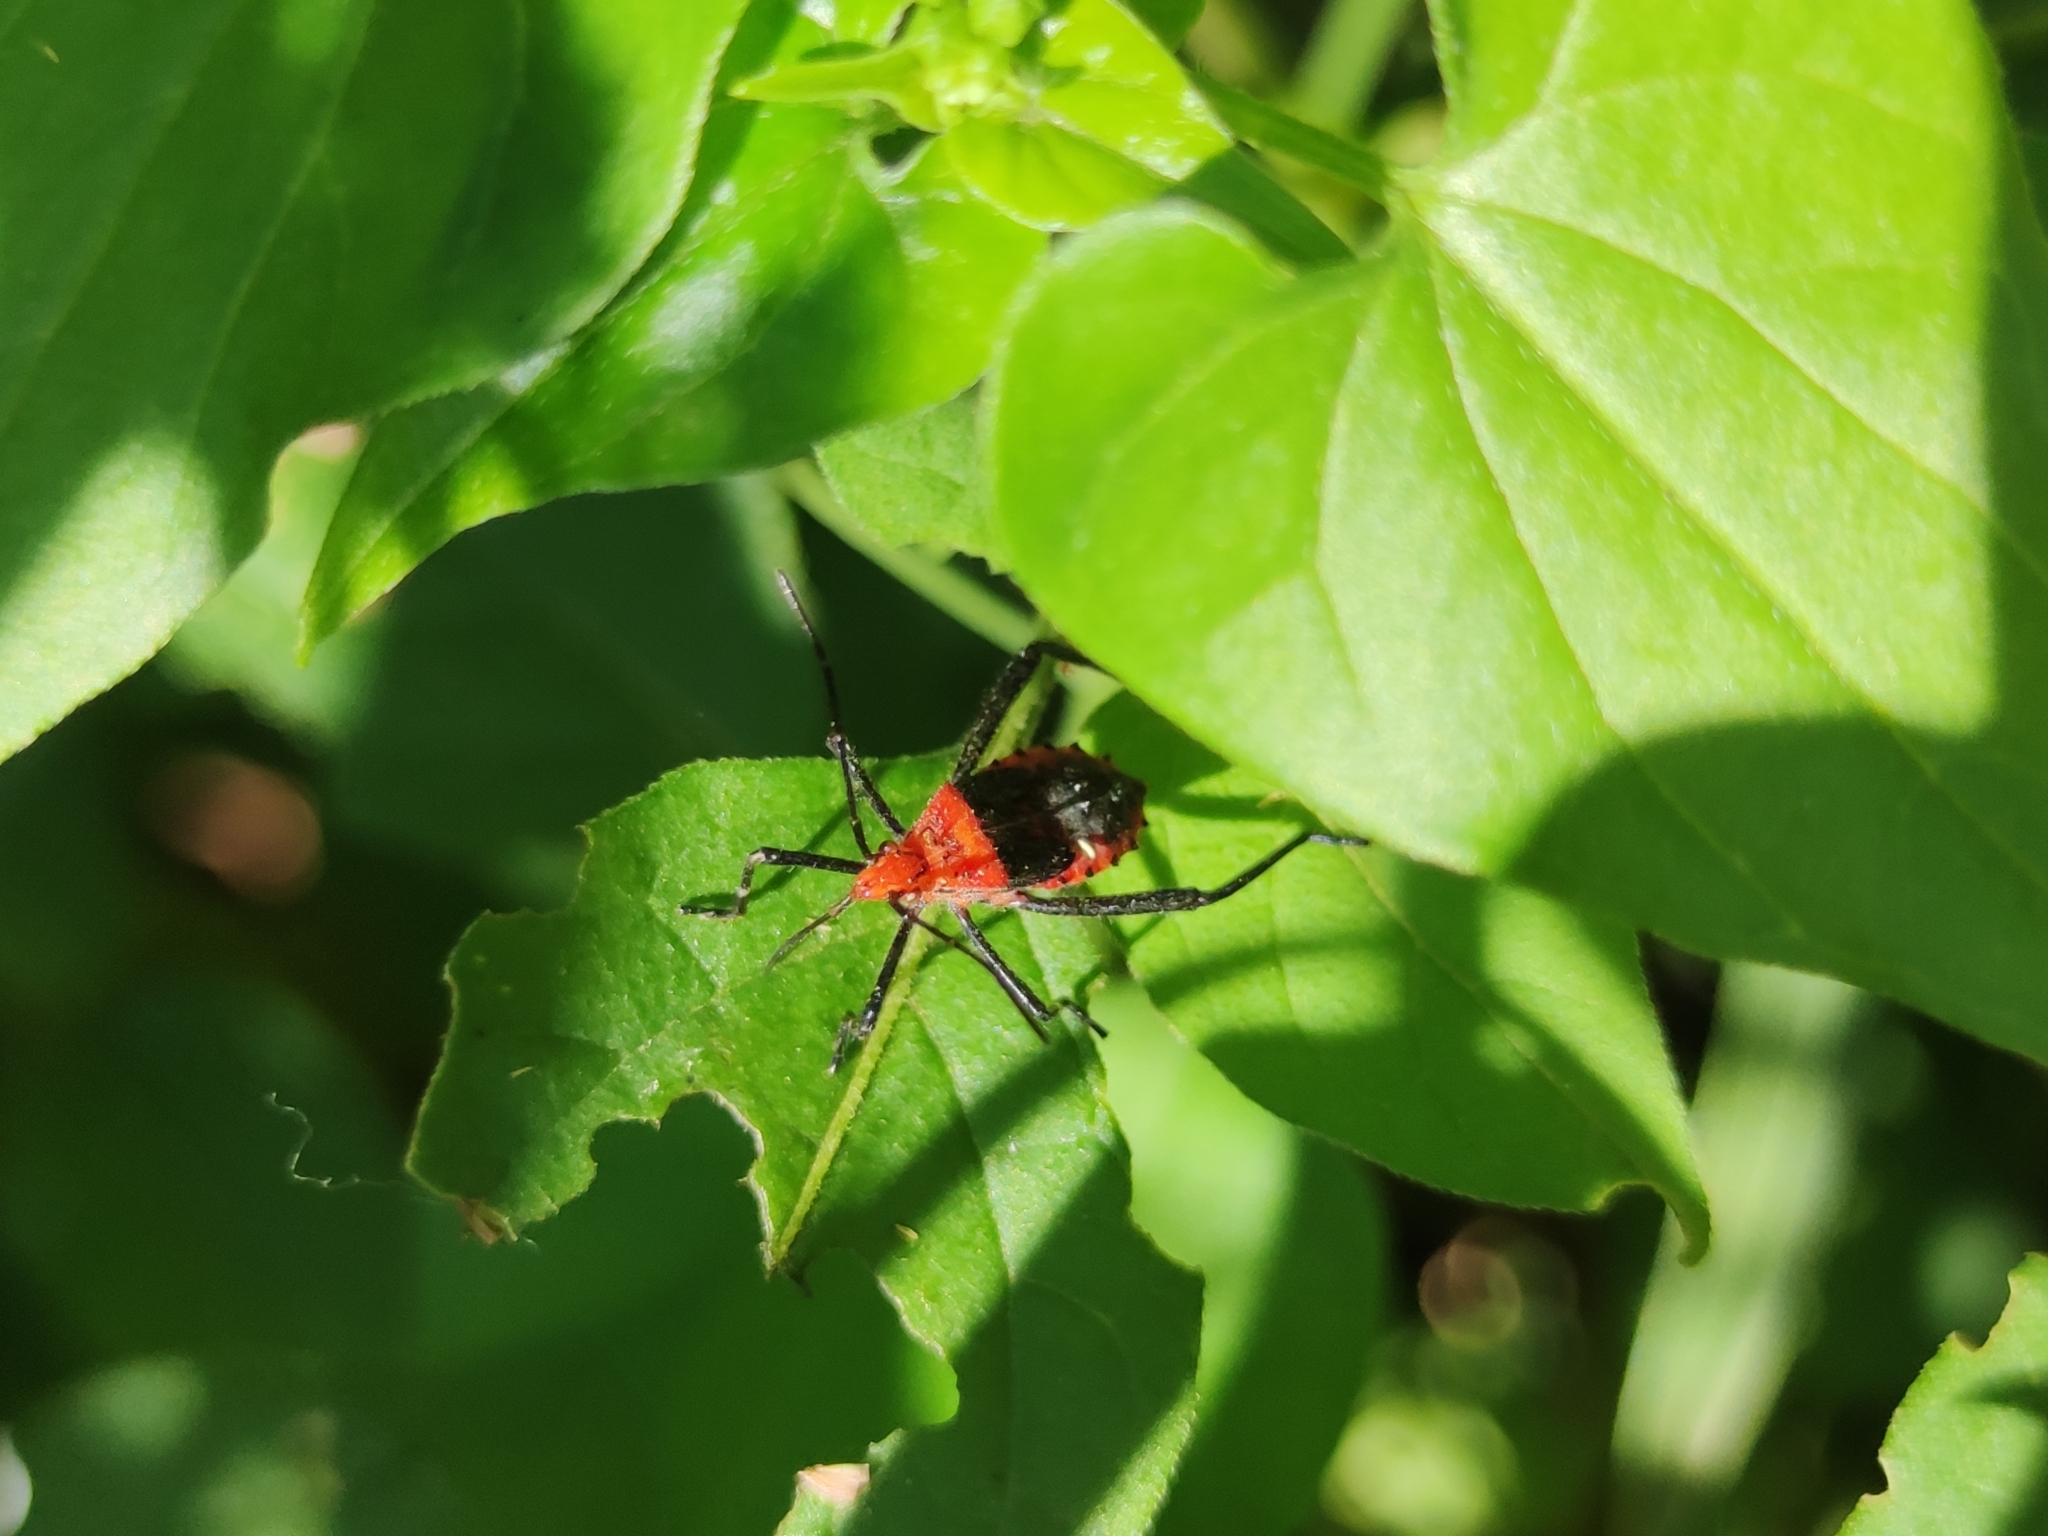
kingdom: Animalia
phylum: Arthropoda
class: Insecta
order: Hemiptera
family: Coreidae
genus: Phthiacnemia
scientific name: Phthiacnemia picta
